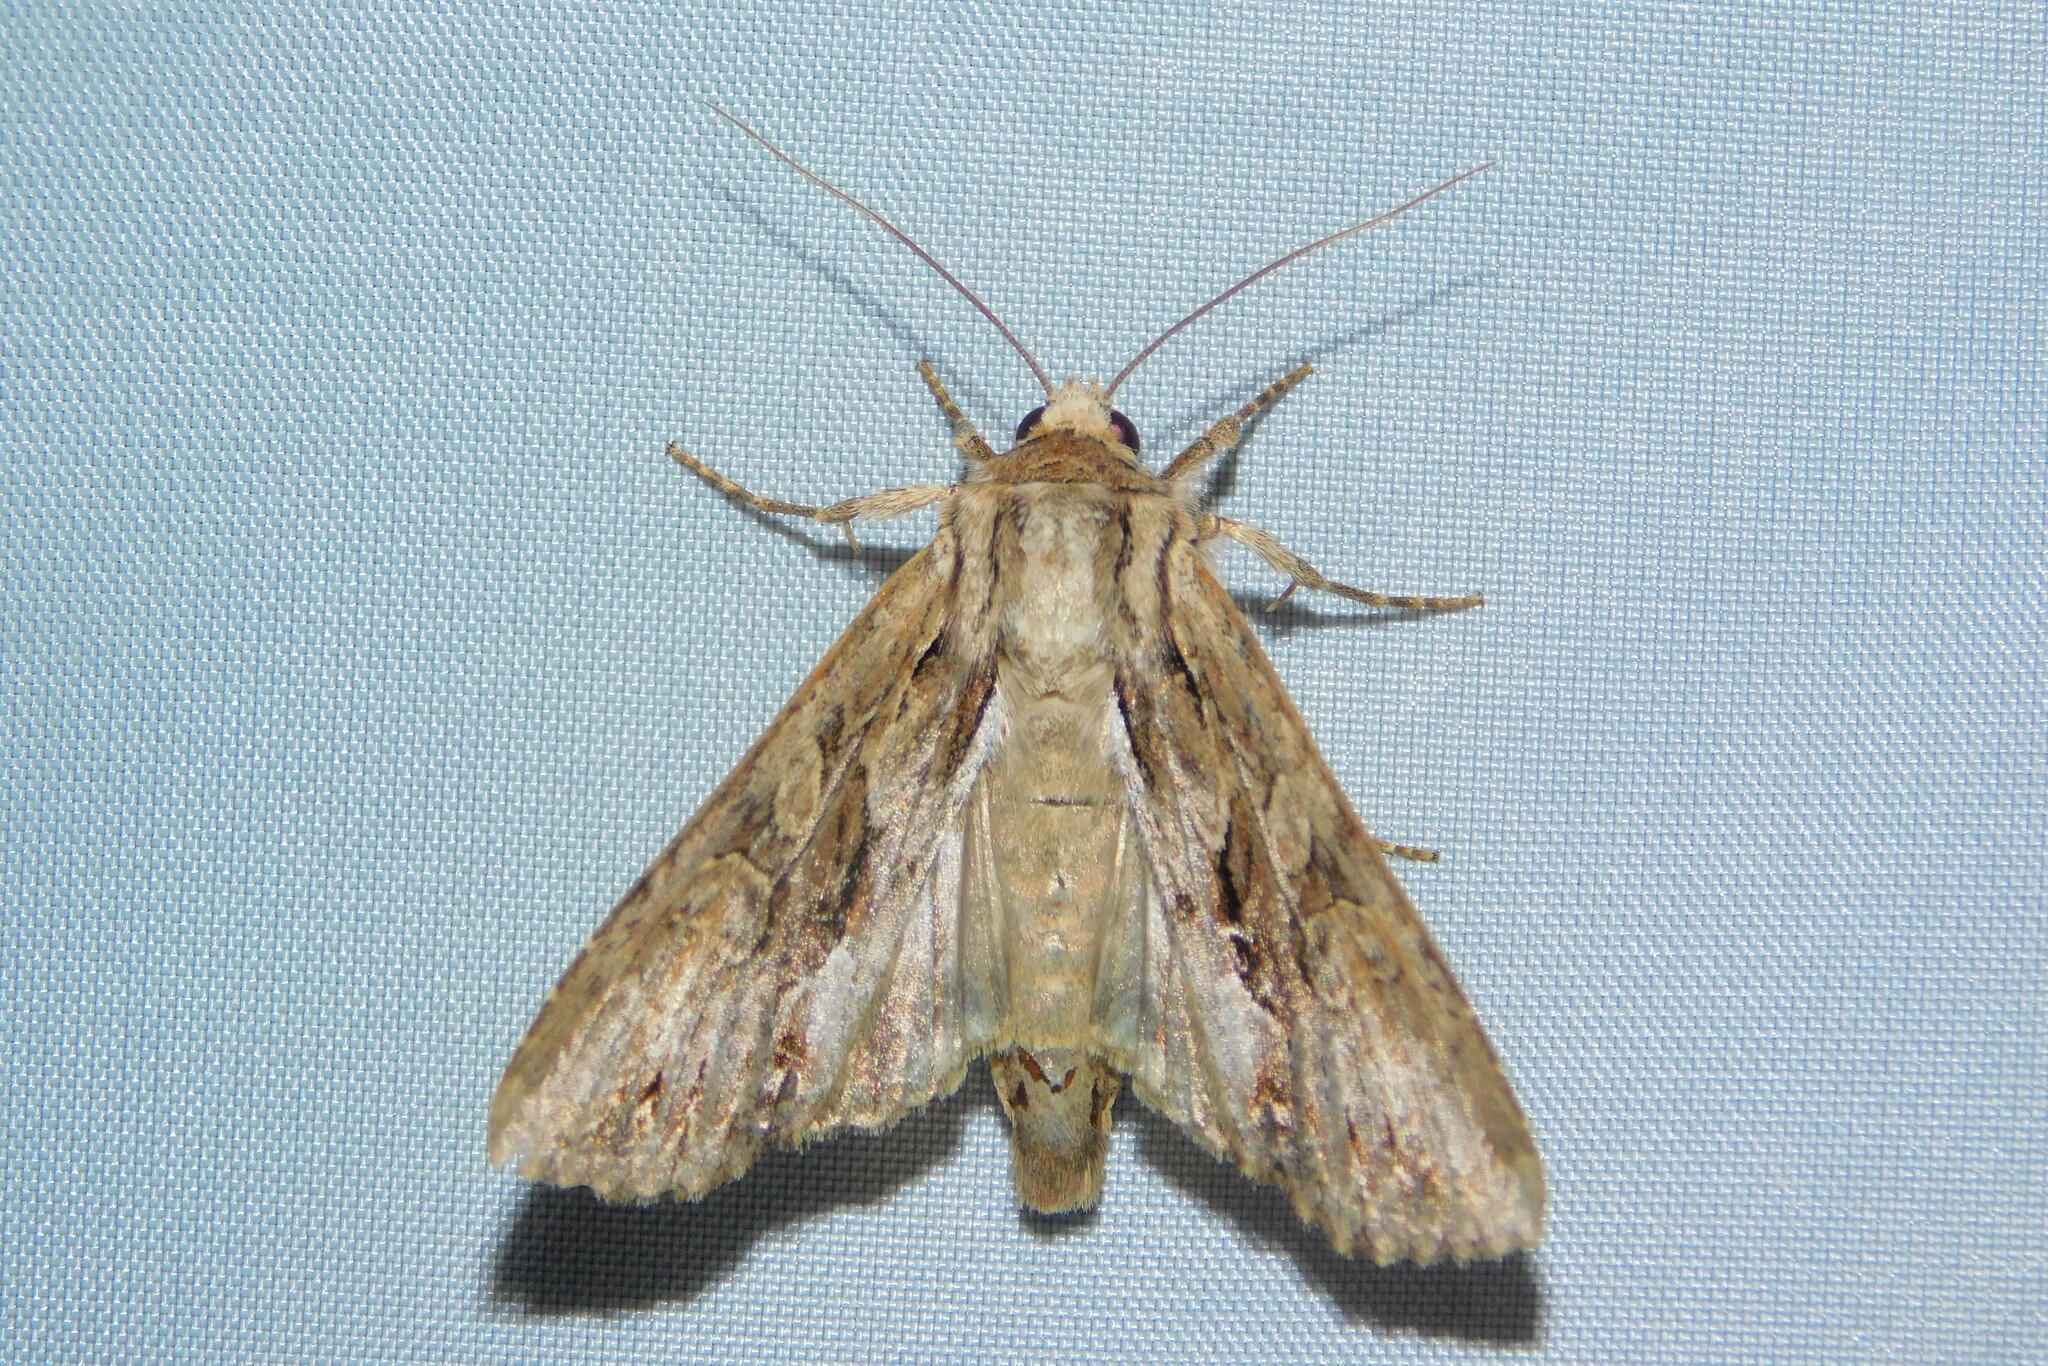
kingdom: Animalia
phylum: Arthropoda
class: Insecta
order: Lepidoptera
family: Noctuidae
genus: Apamea
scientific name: Apamea monoglypha
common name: Dark arches
